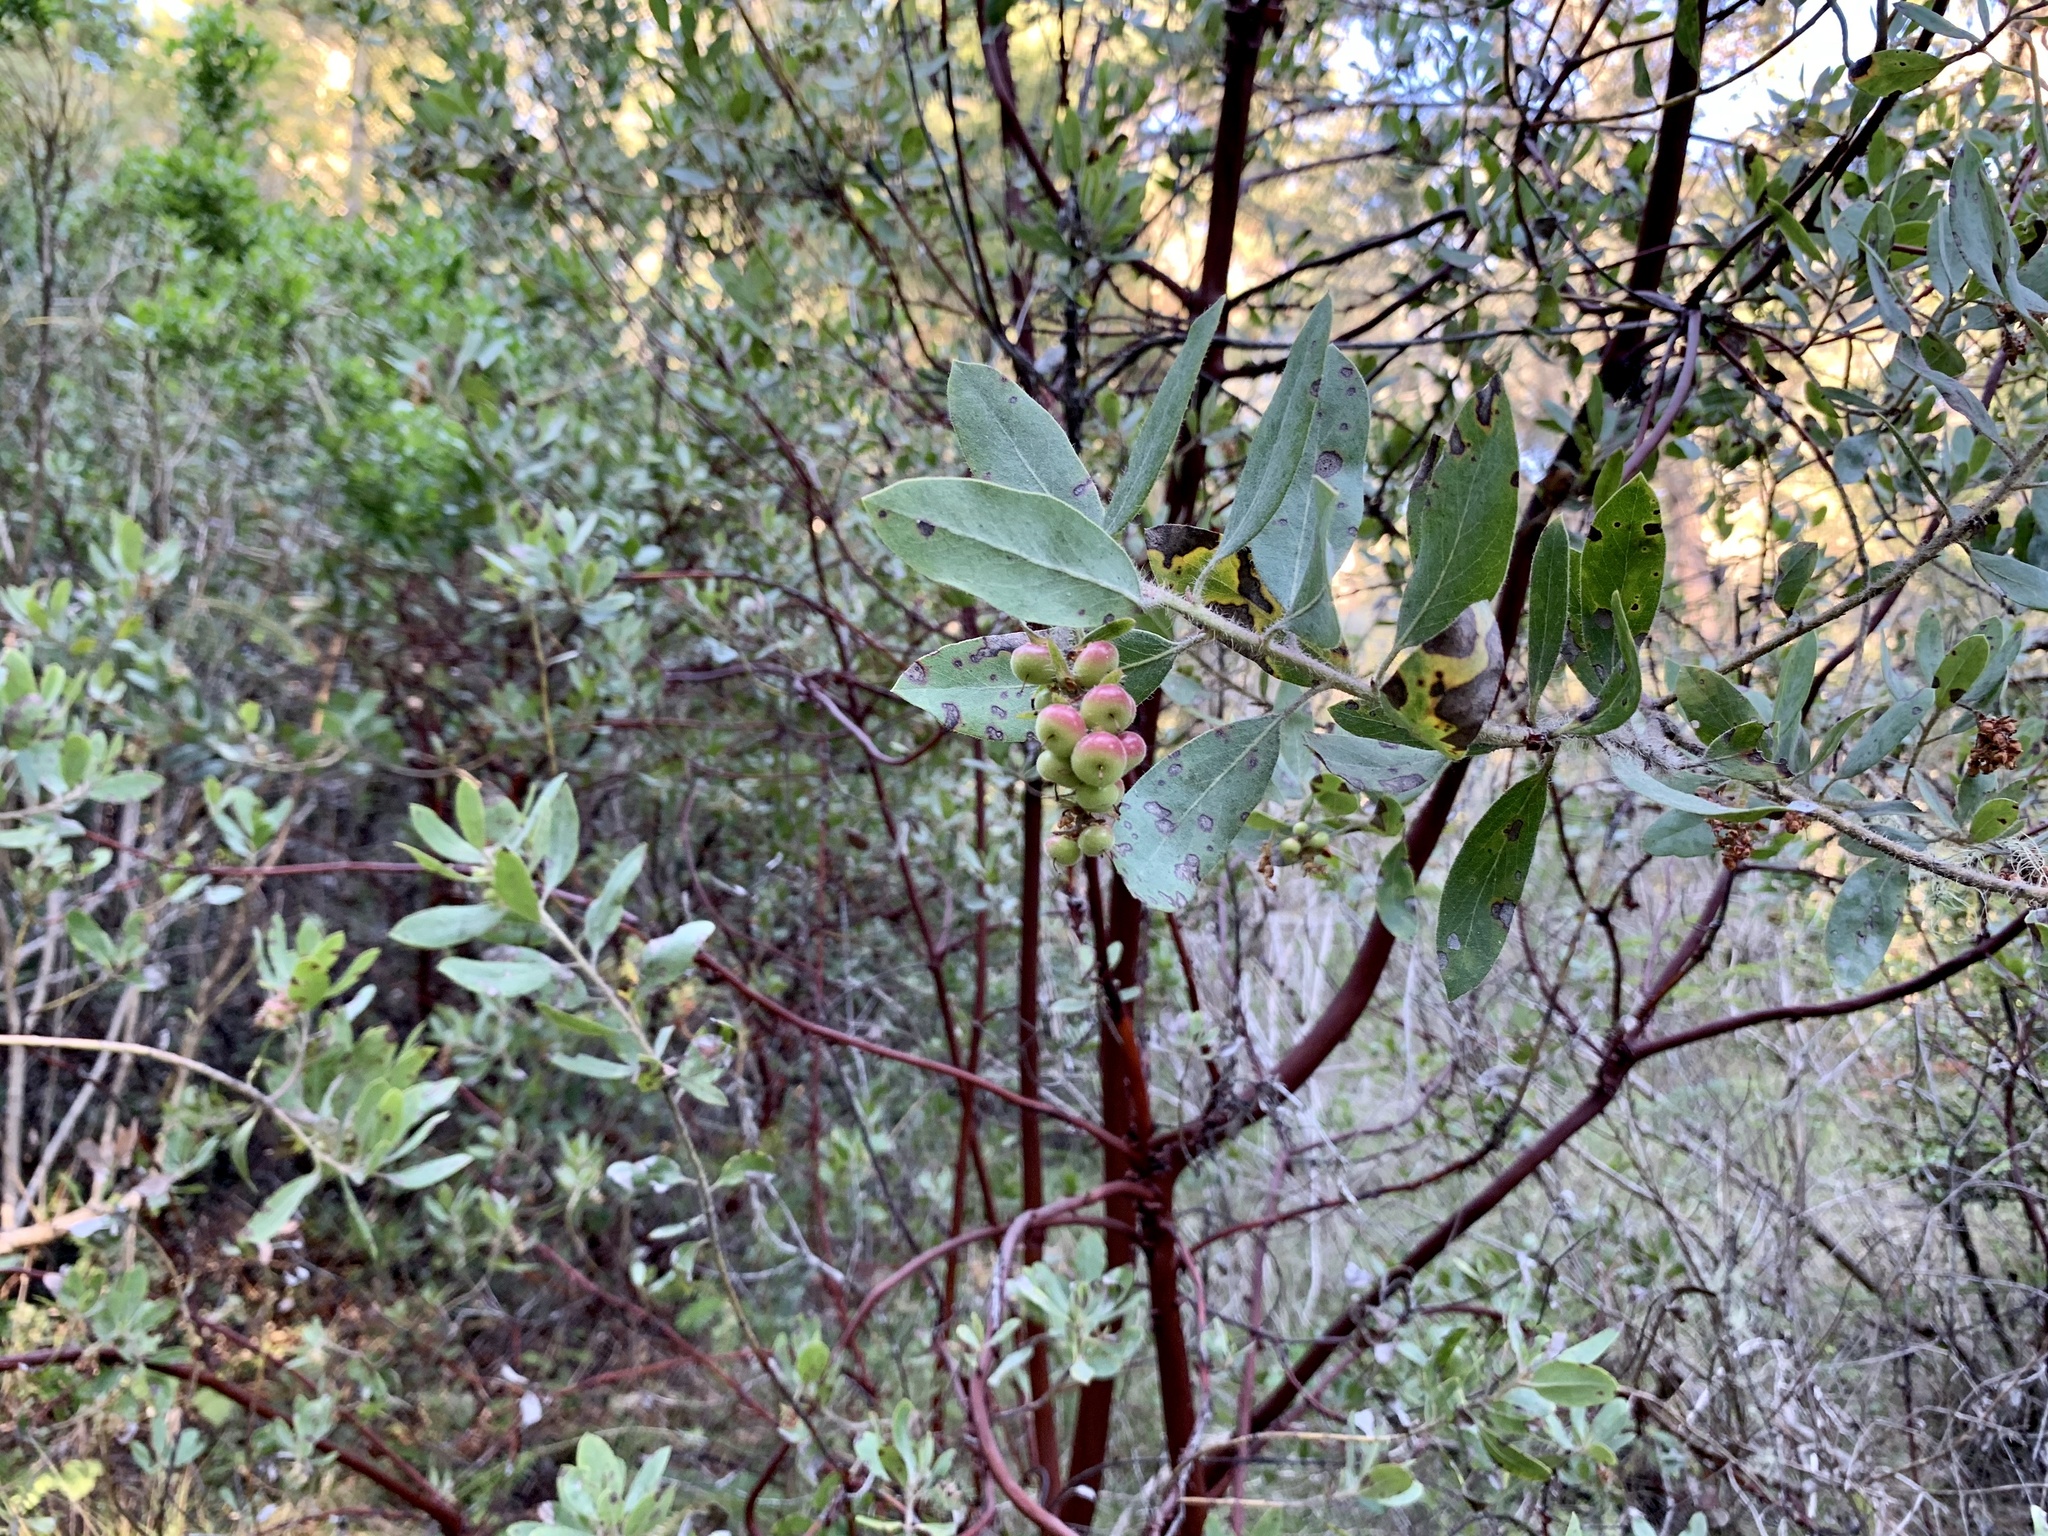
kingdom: Plantae
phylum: Tracheophyta
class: Magnoliopsida
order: Ericales
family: Ericaceae
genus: Arctostaphylos
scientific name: Arctostaphylos columbiana
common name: Bristly bearberry
